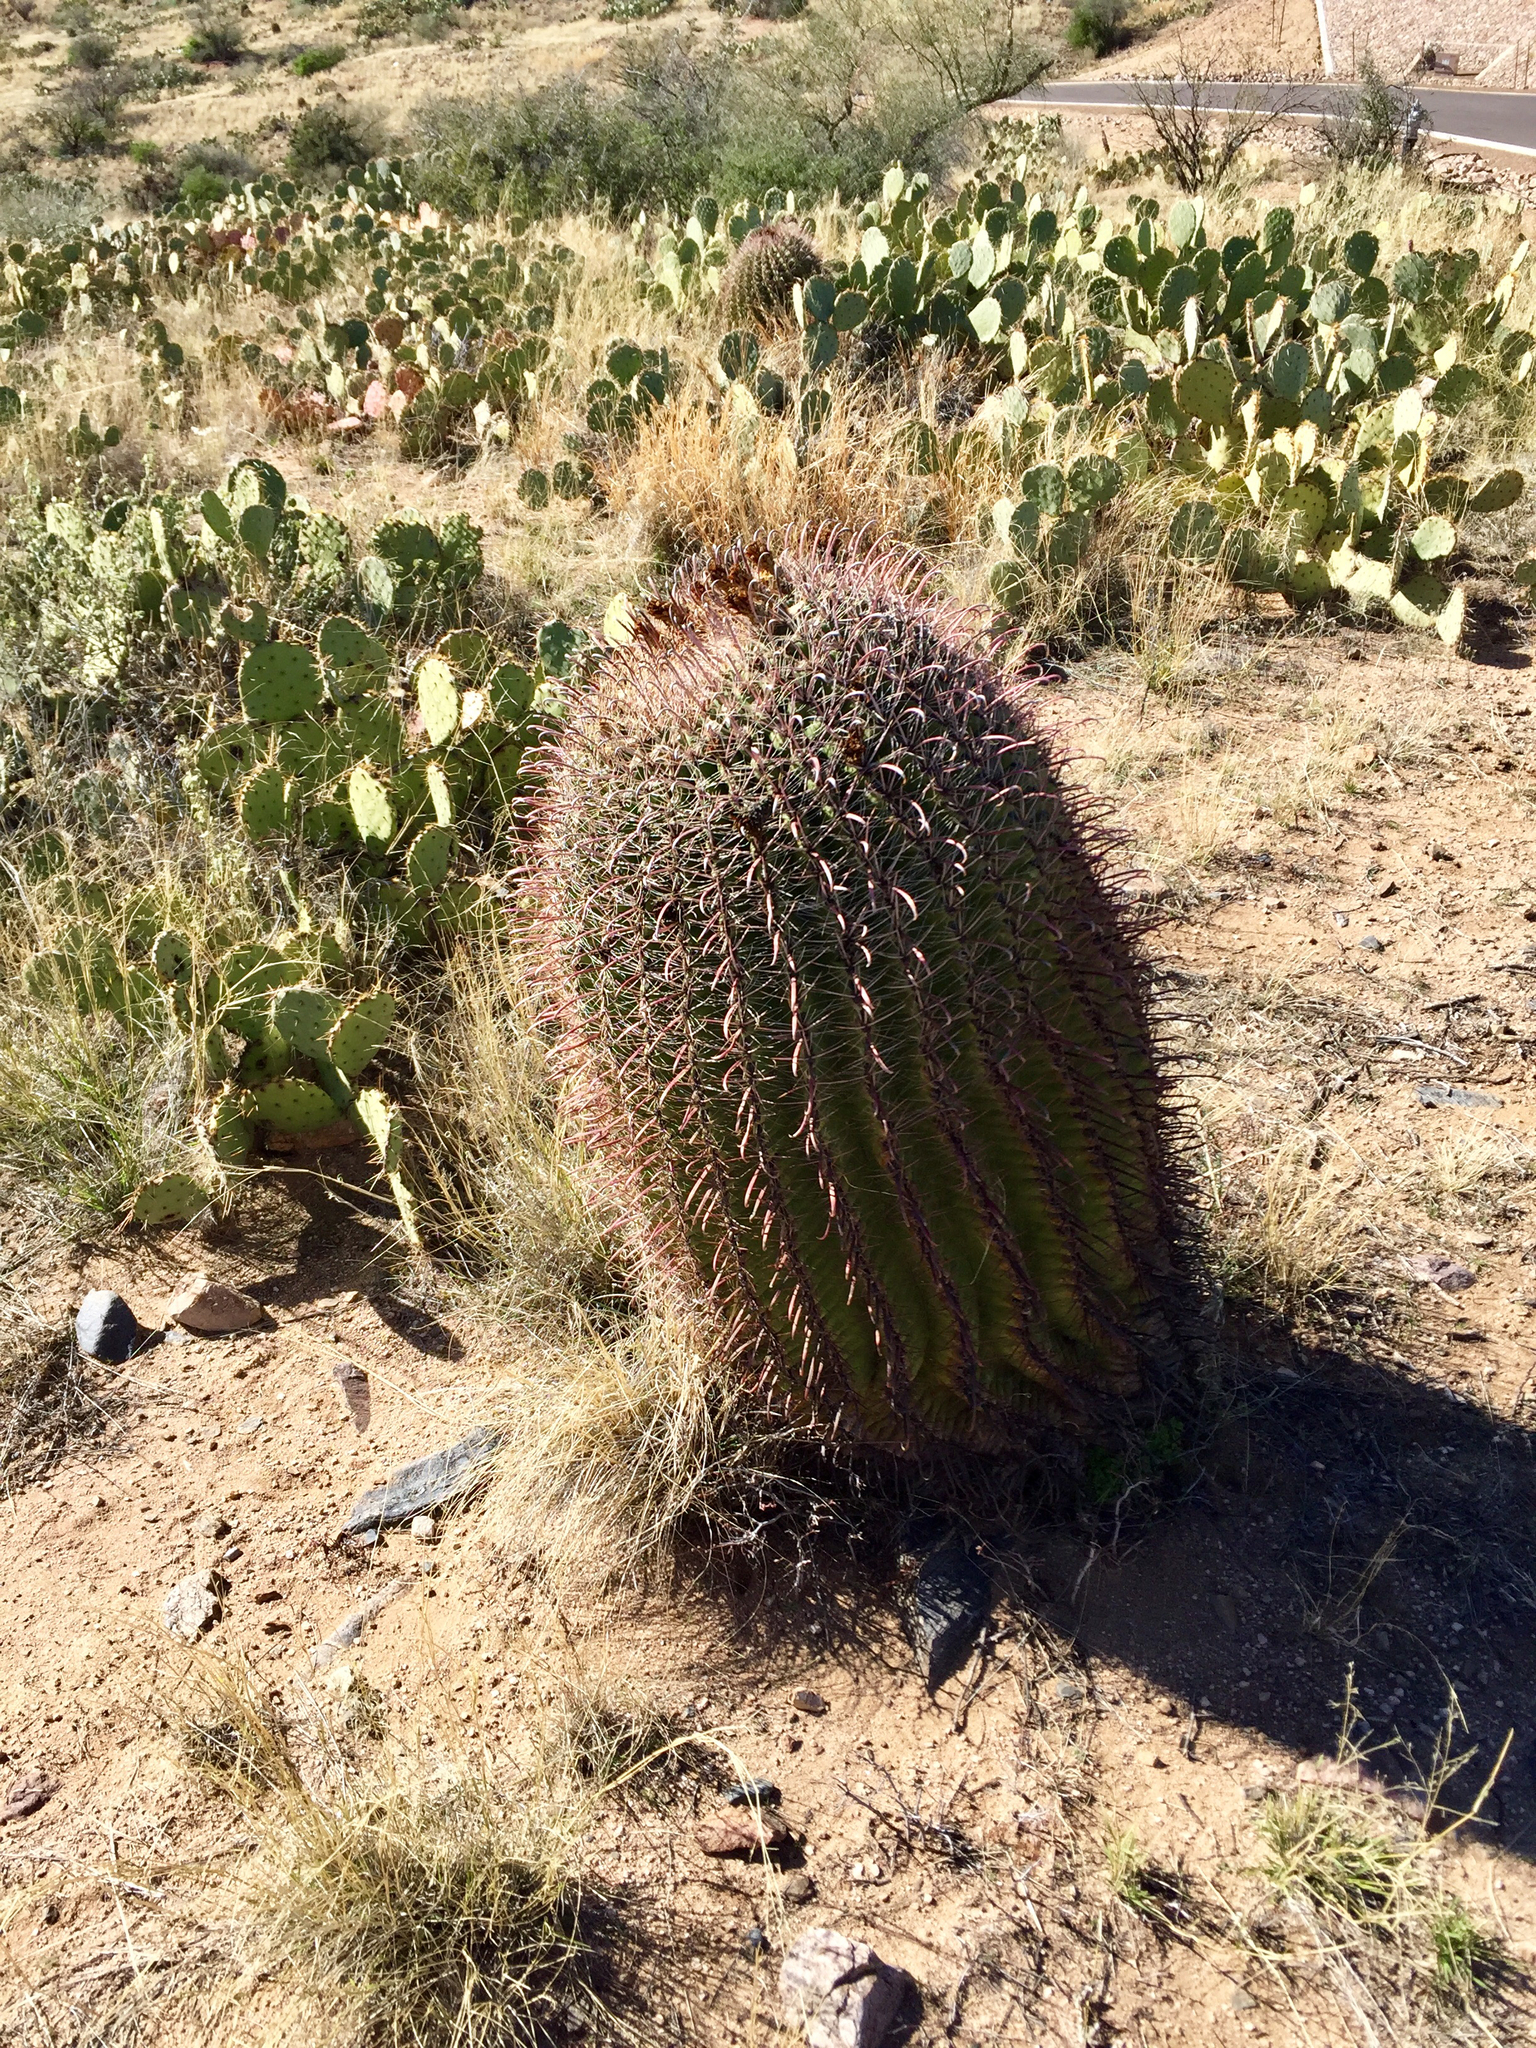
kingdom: Plantae
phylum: Tracheophyta
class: Magnoliopsida
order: Caryophyllales
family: Cactaceae
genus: Ferocactus
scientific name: Ferocactus wislizeni
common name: Candy barrel cactus
